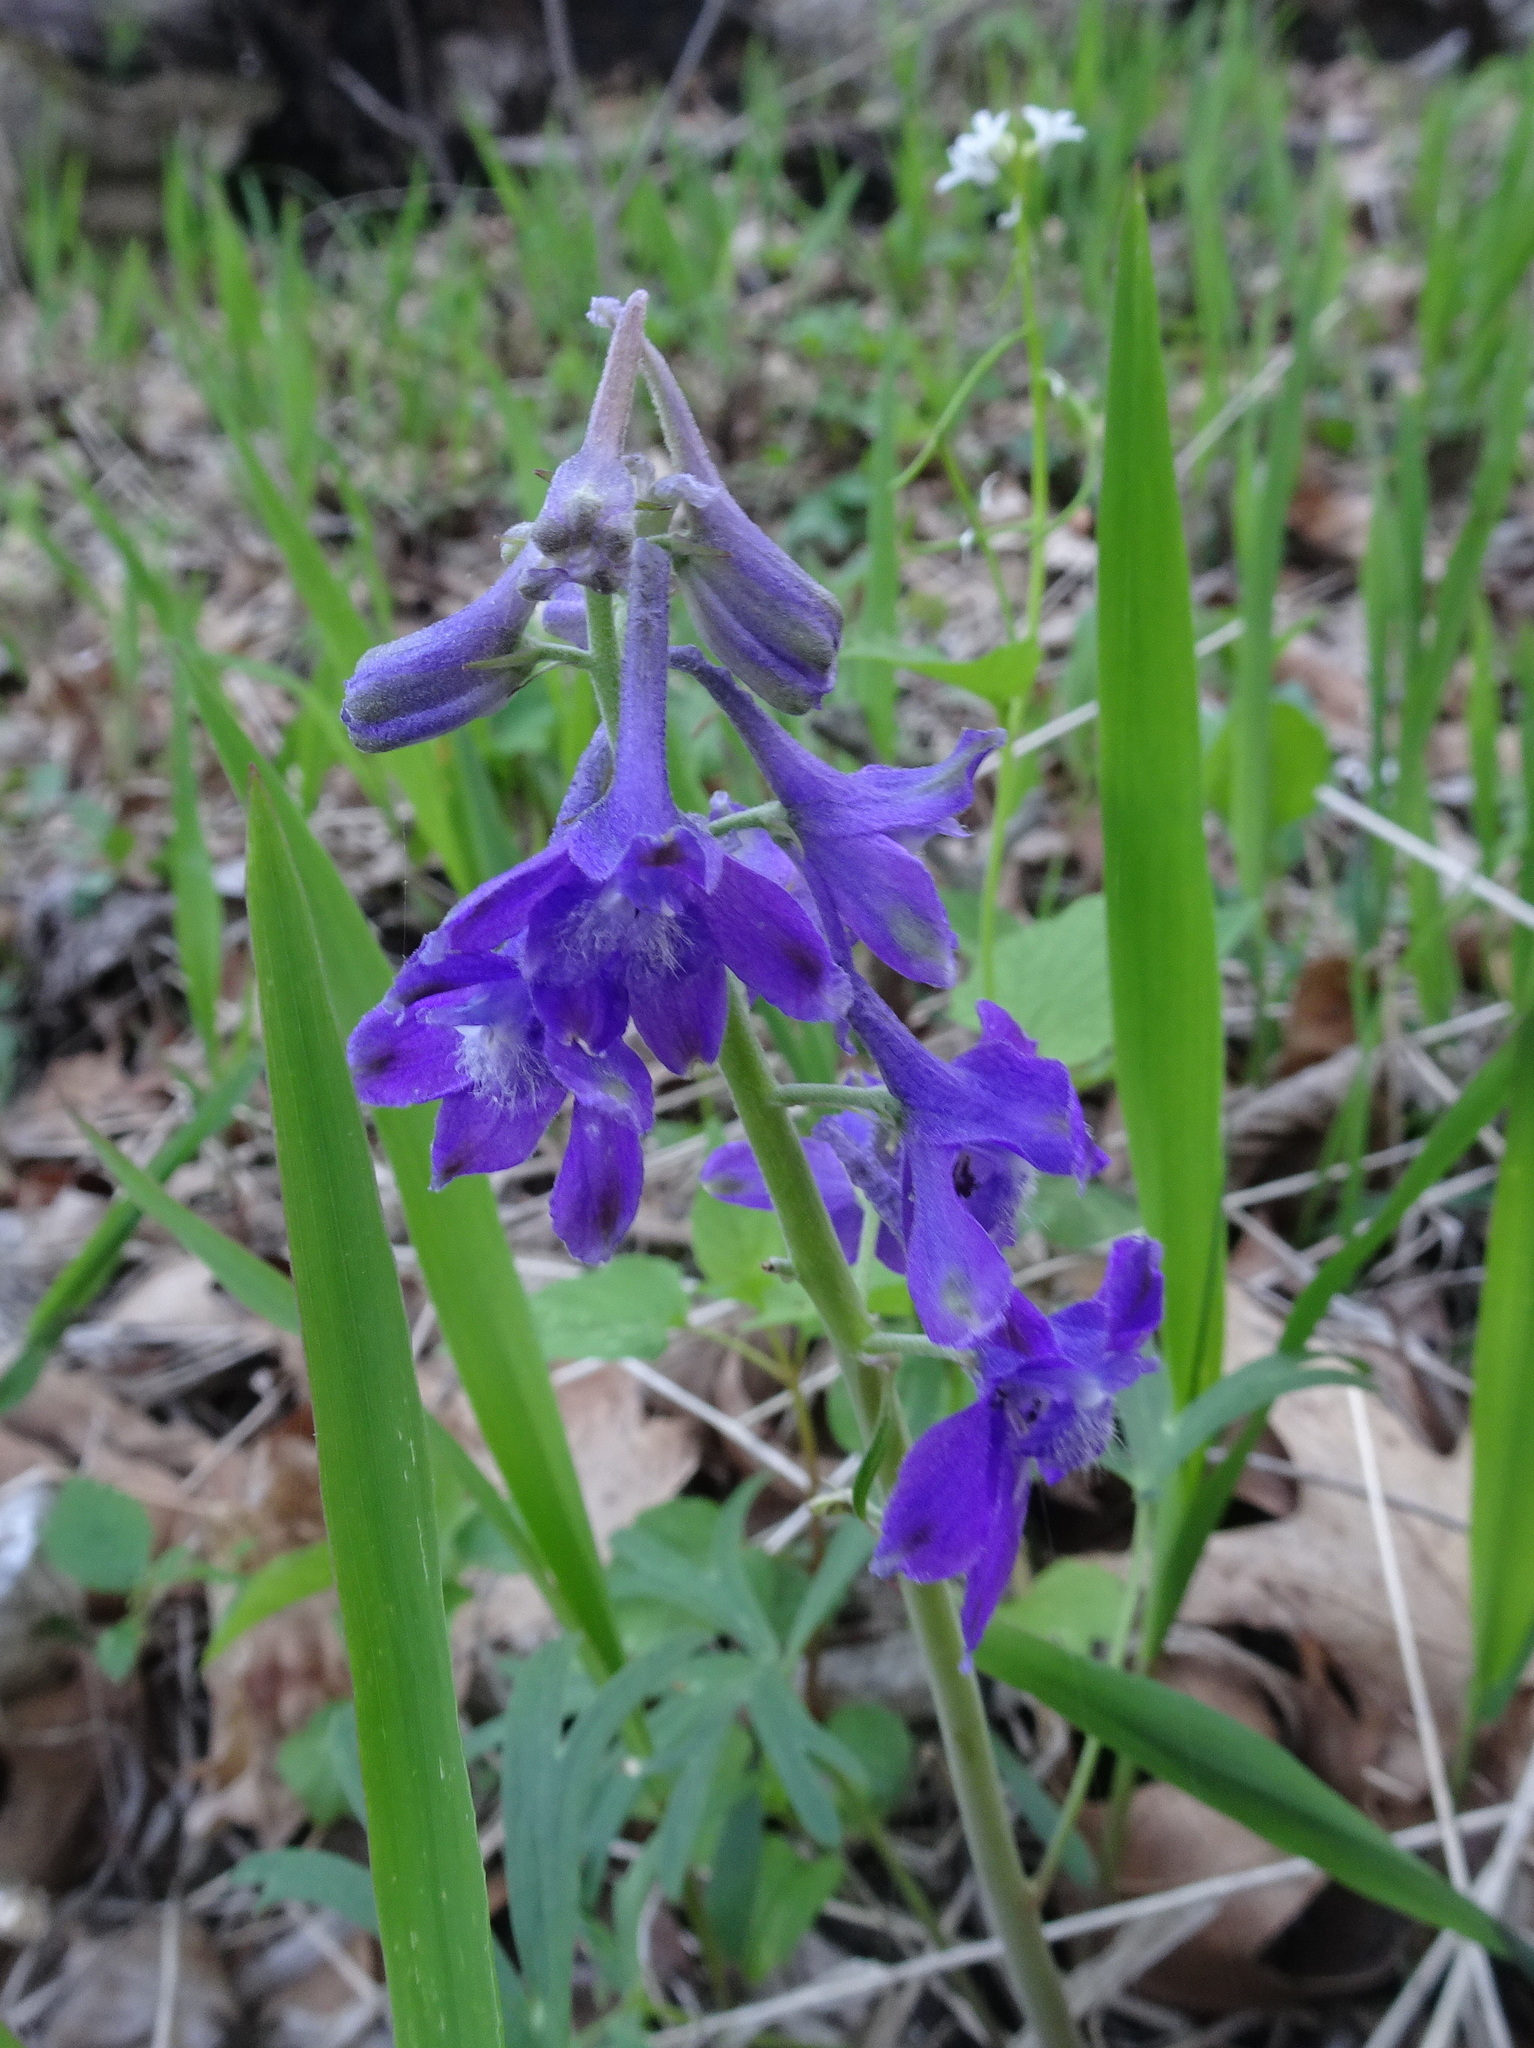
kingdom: Plantae
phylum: Tracheophyta
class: Magnoliopsida
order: Ranunculales
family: Ranunculaceae
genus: Delphinium
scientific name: Delphinium tricorne
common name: Dwarf larkspur
